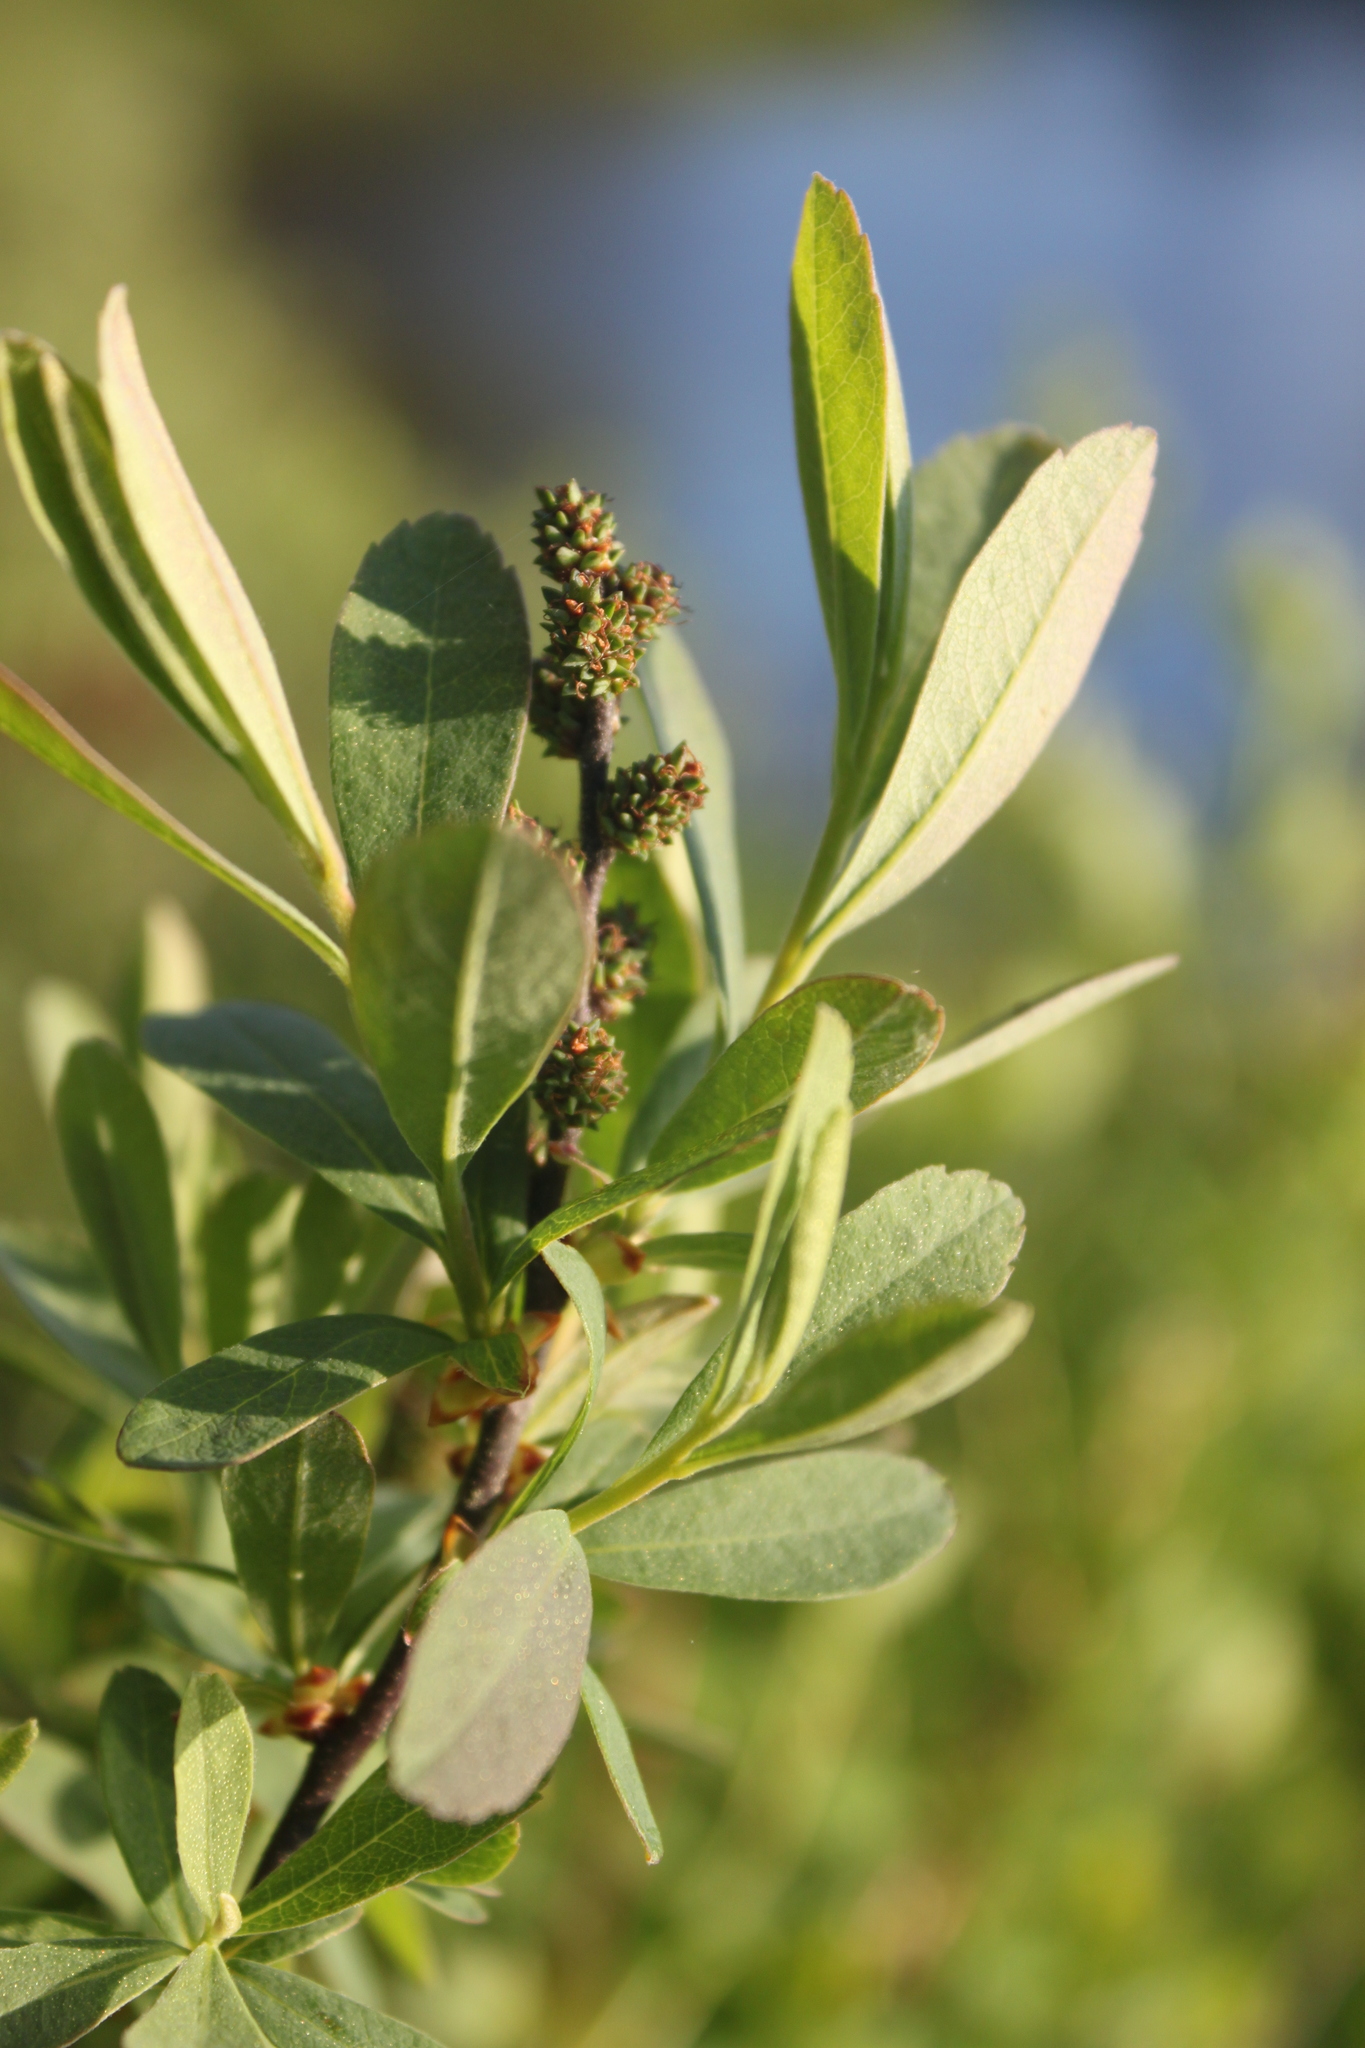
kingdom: Plantae
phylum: Tracheophyta
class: Magnoliopsida
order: Fagales
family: Myricaceae
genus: Myrica
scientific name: Myrica gale
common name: Sweet gale
